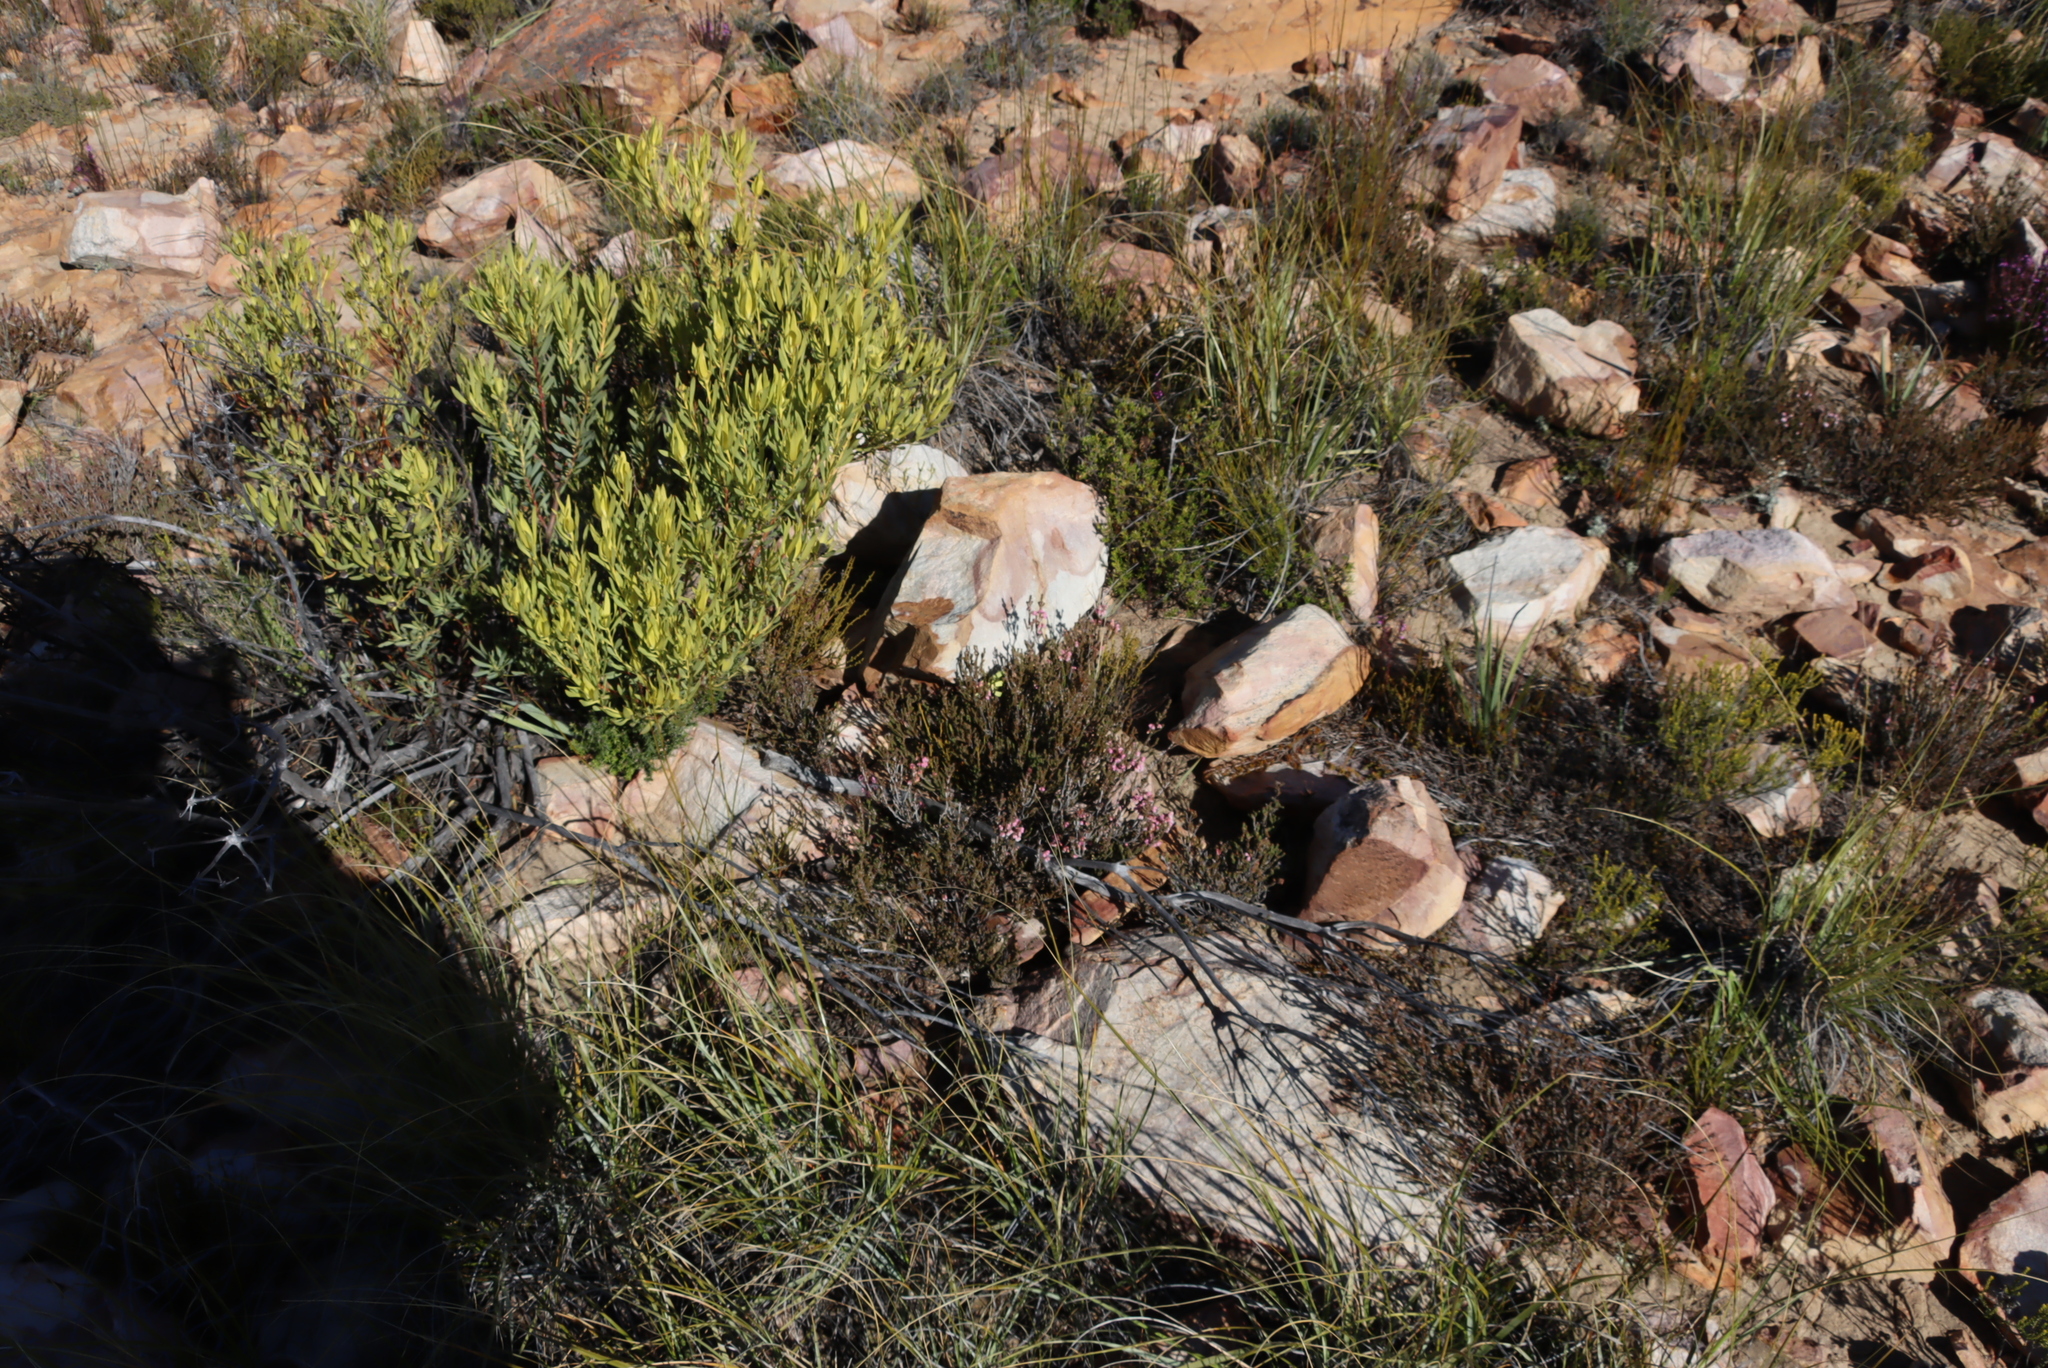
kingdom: Plantae
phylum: Tracheophyta
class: Magnoliopsida
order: Proteales
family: Proteaceae
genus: Leucadendron
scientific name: Leucadendron salignum
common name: Common sunshine conebush
